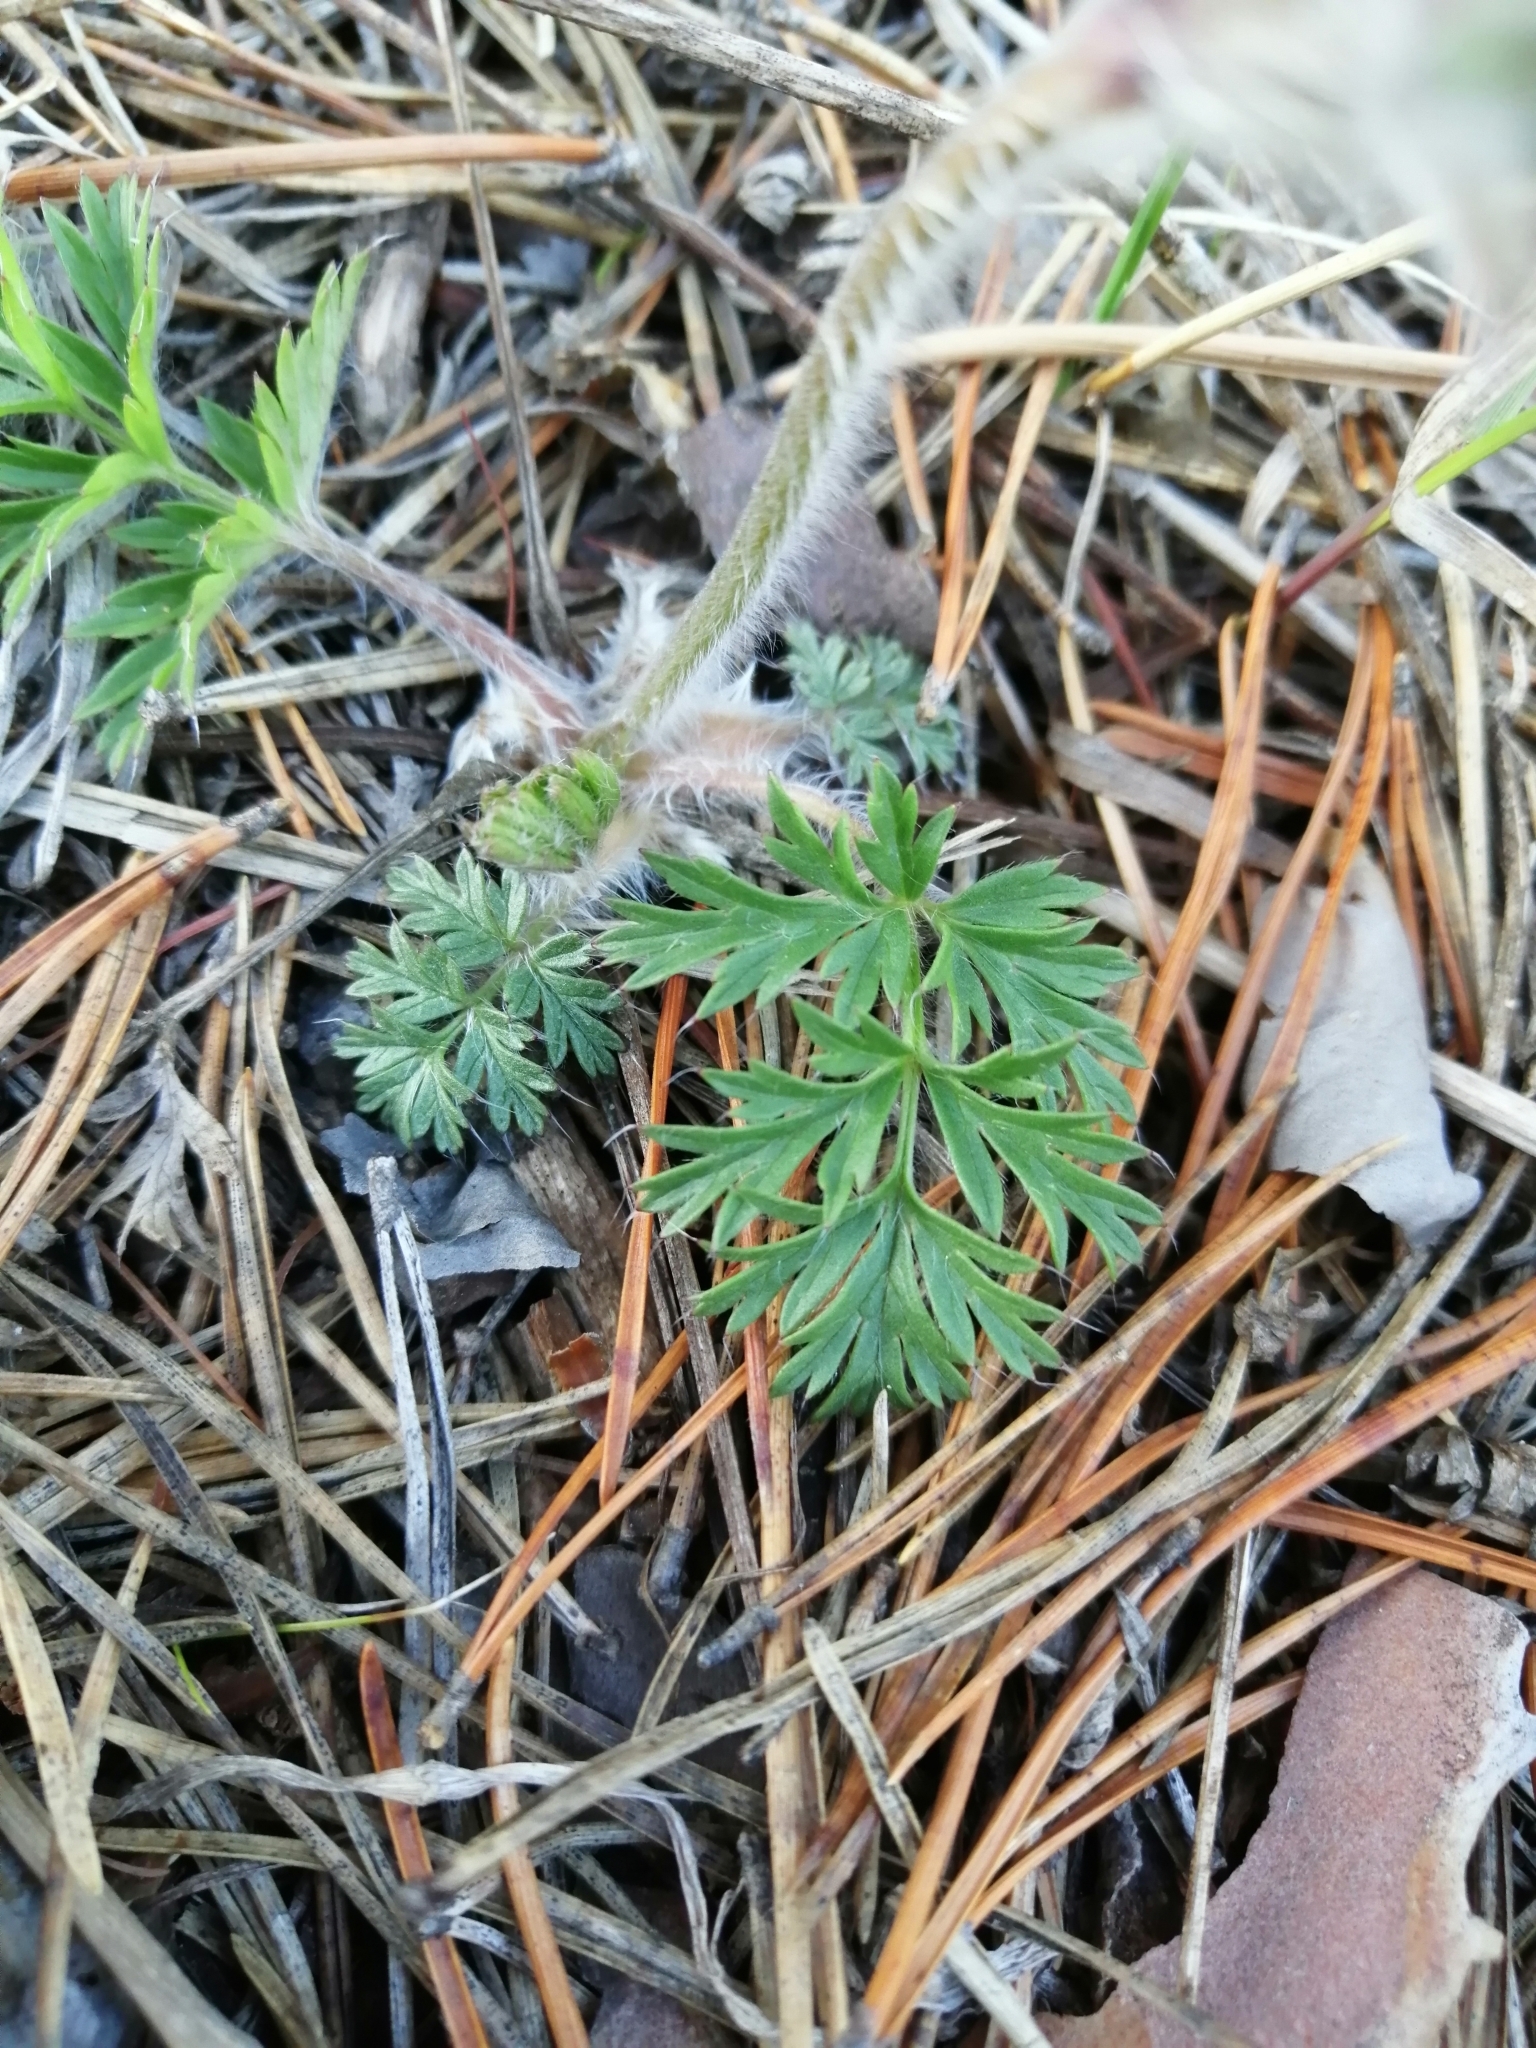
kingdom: Plantae
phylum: Tracheophyta
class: Magnoliopsida
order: Ranunculales
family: Ranunculaceae
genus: Pulsatilla
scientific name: Pulsatilla turczaninovii
